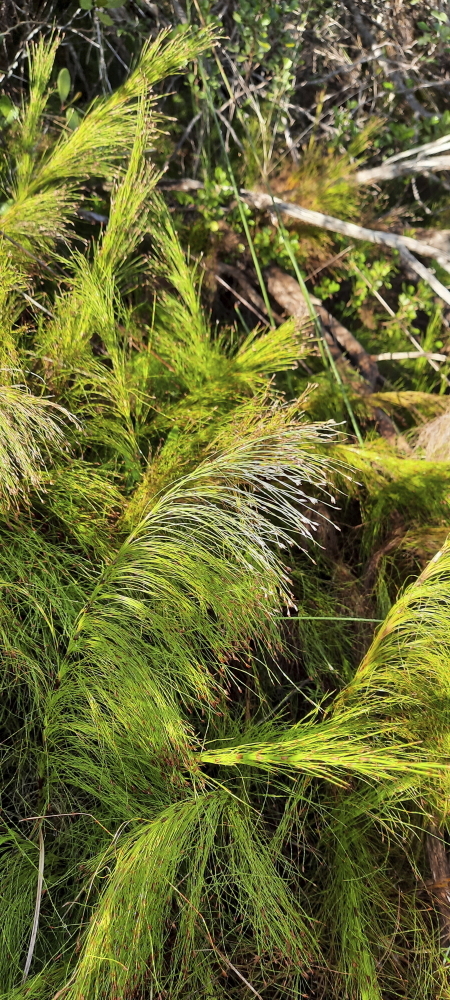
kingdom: Plantae
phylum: Tracheophyta
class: Liliopsida
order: Poales
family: Restionaceae
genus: Restio
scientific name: Restio leptoclados
